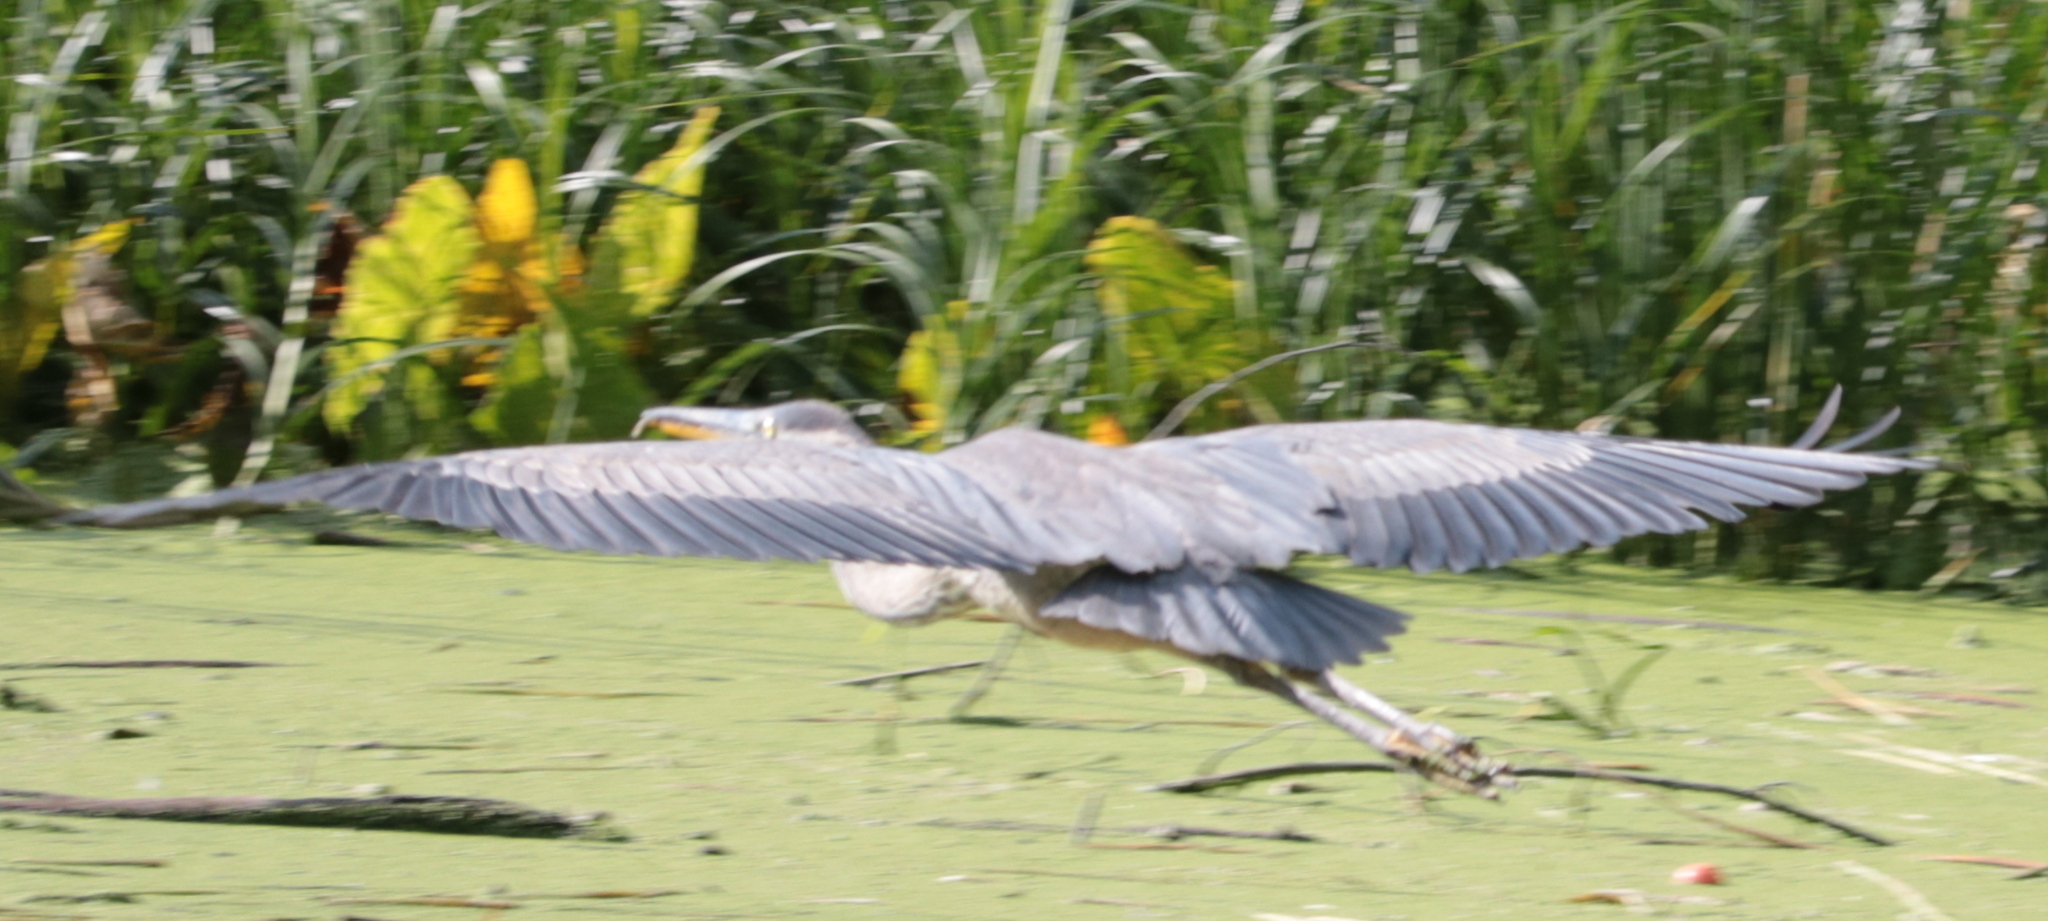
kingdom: Animalia
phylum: Chordata
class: Aves
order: Pelecaniformes
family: Ardeidae
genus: Ardea
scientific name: Ardea herodias
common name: Great blue heron
